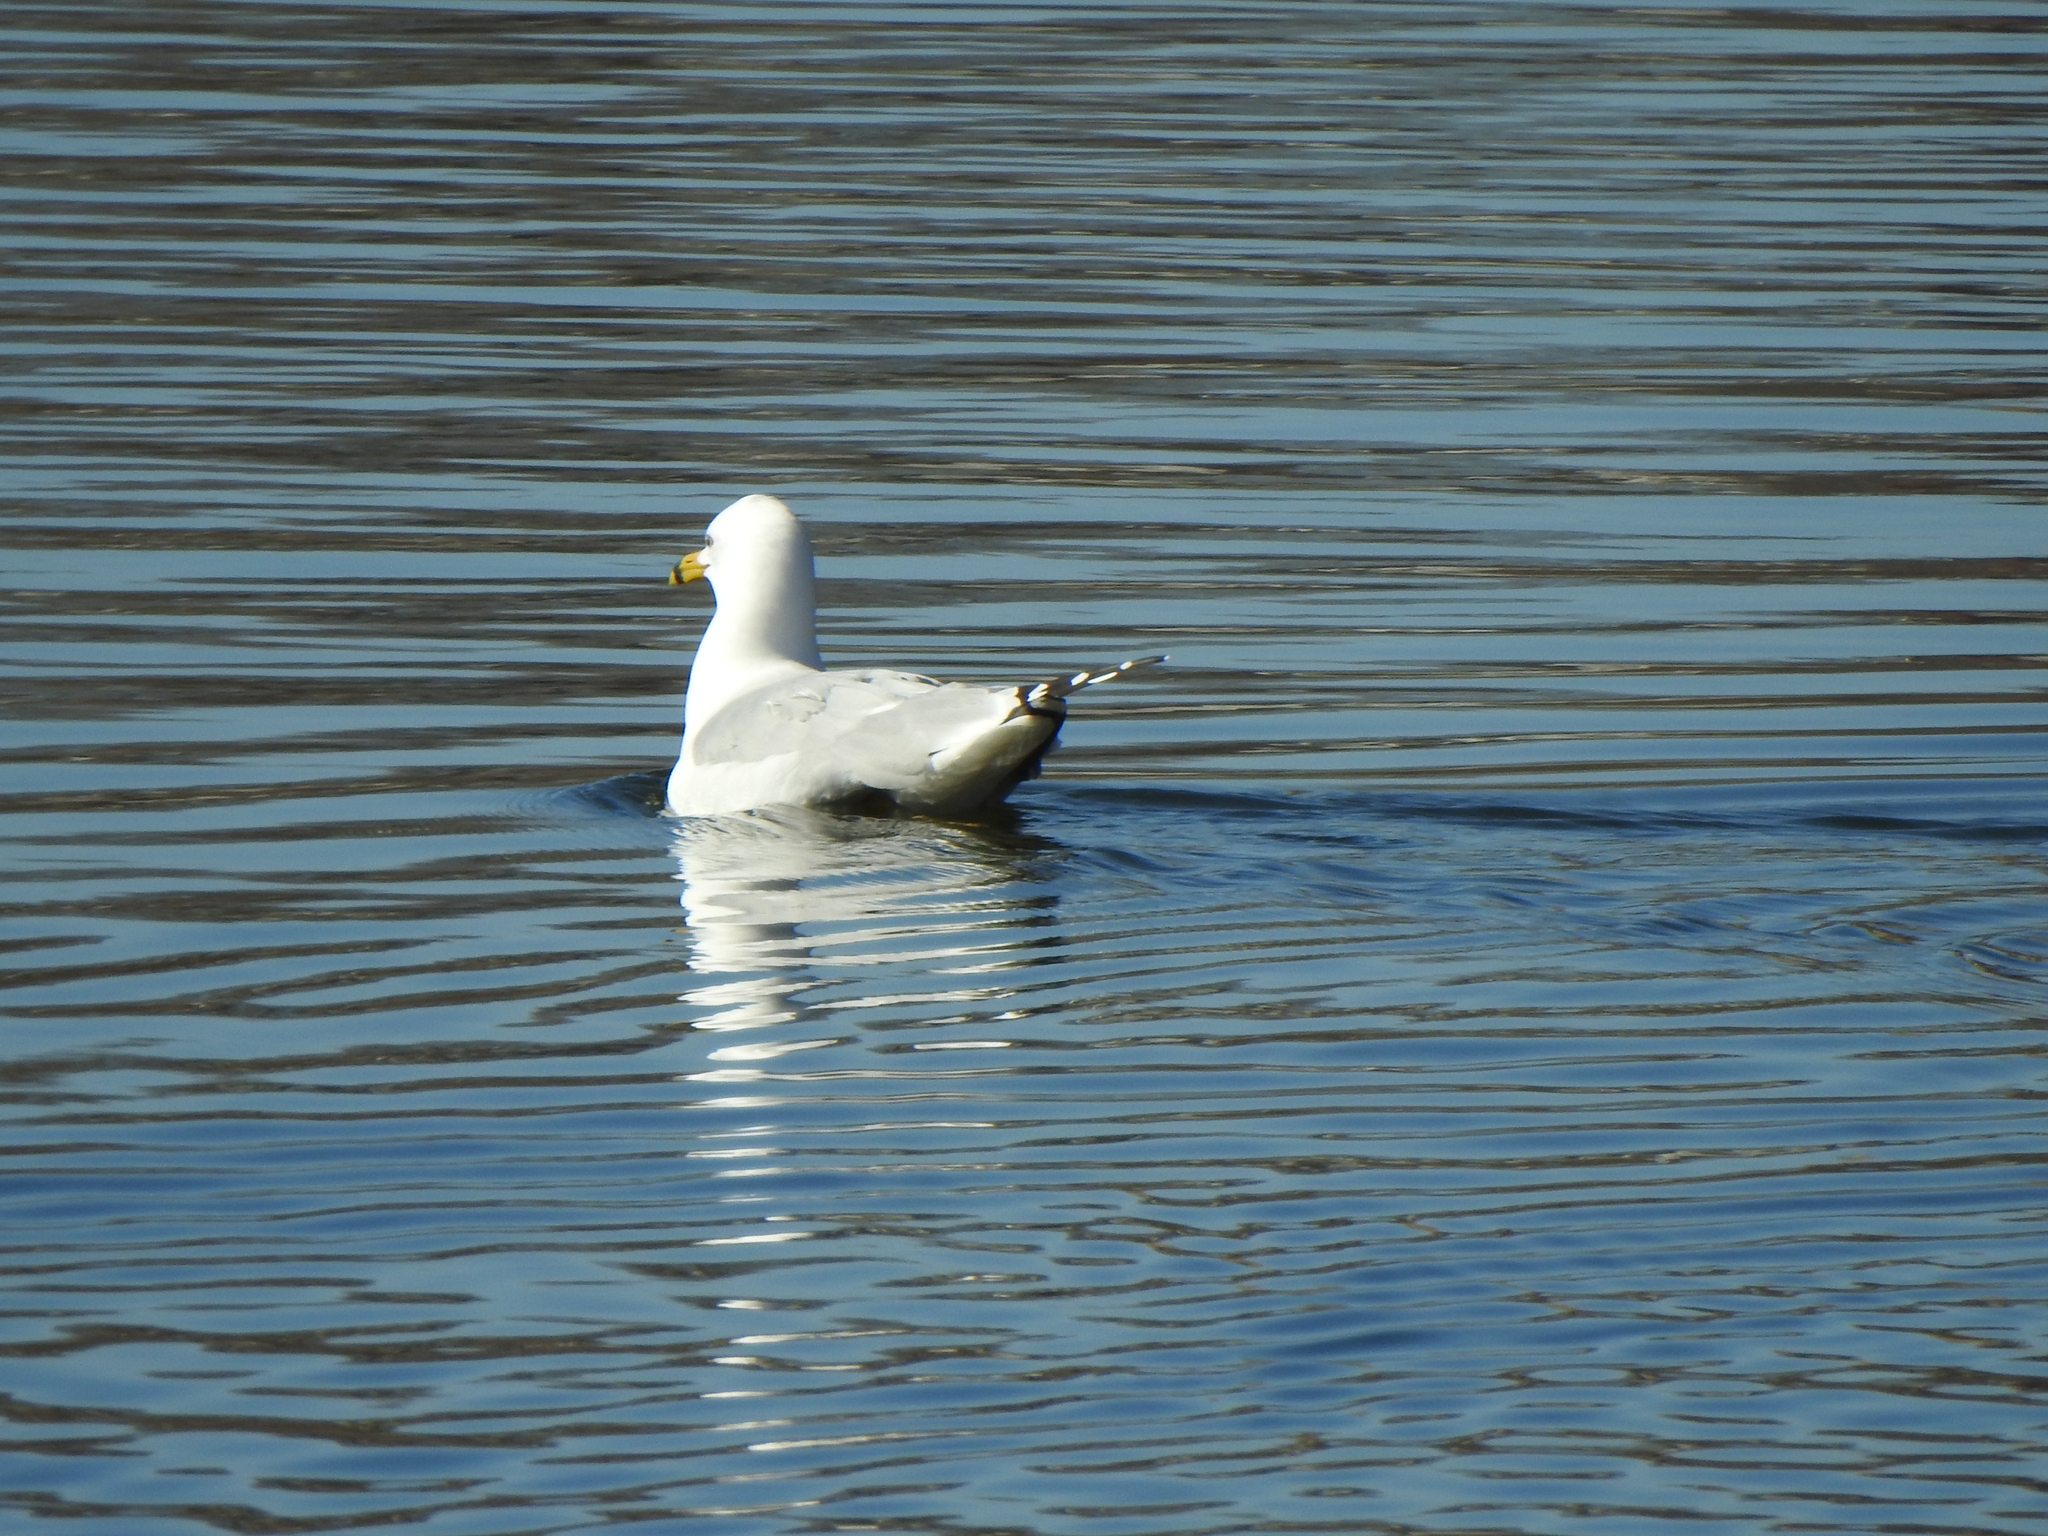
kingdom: Animalia
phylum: Chordata
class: Aves
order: Charadriiformes
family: Laridae
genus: Larus
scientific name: Larus delawarensis
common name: Ring-billed gull
